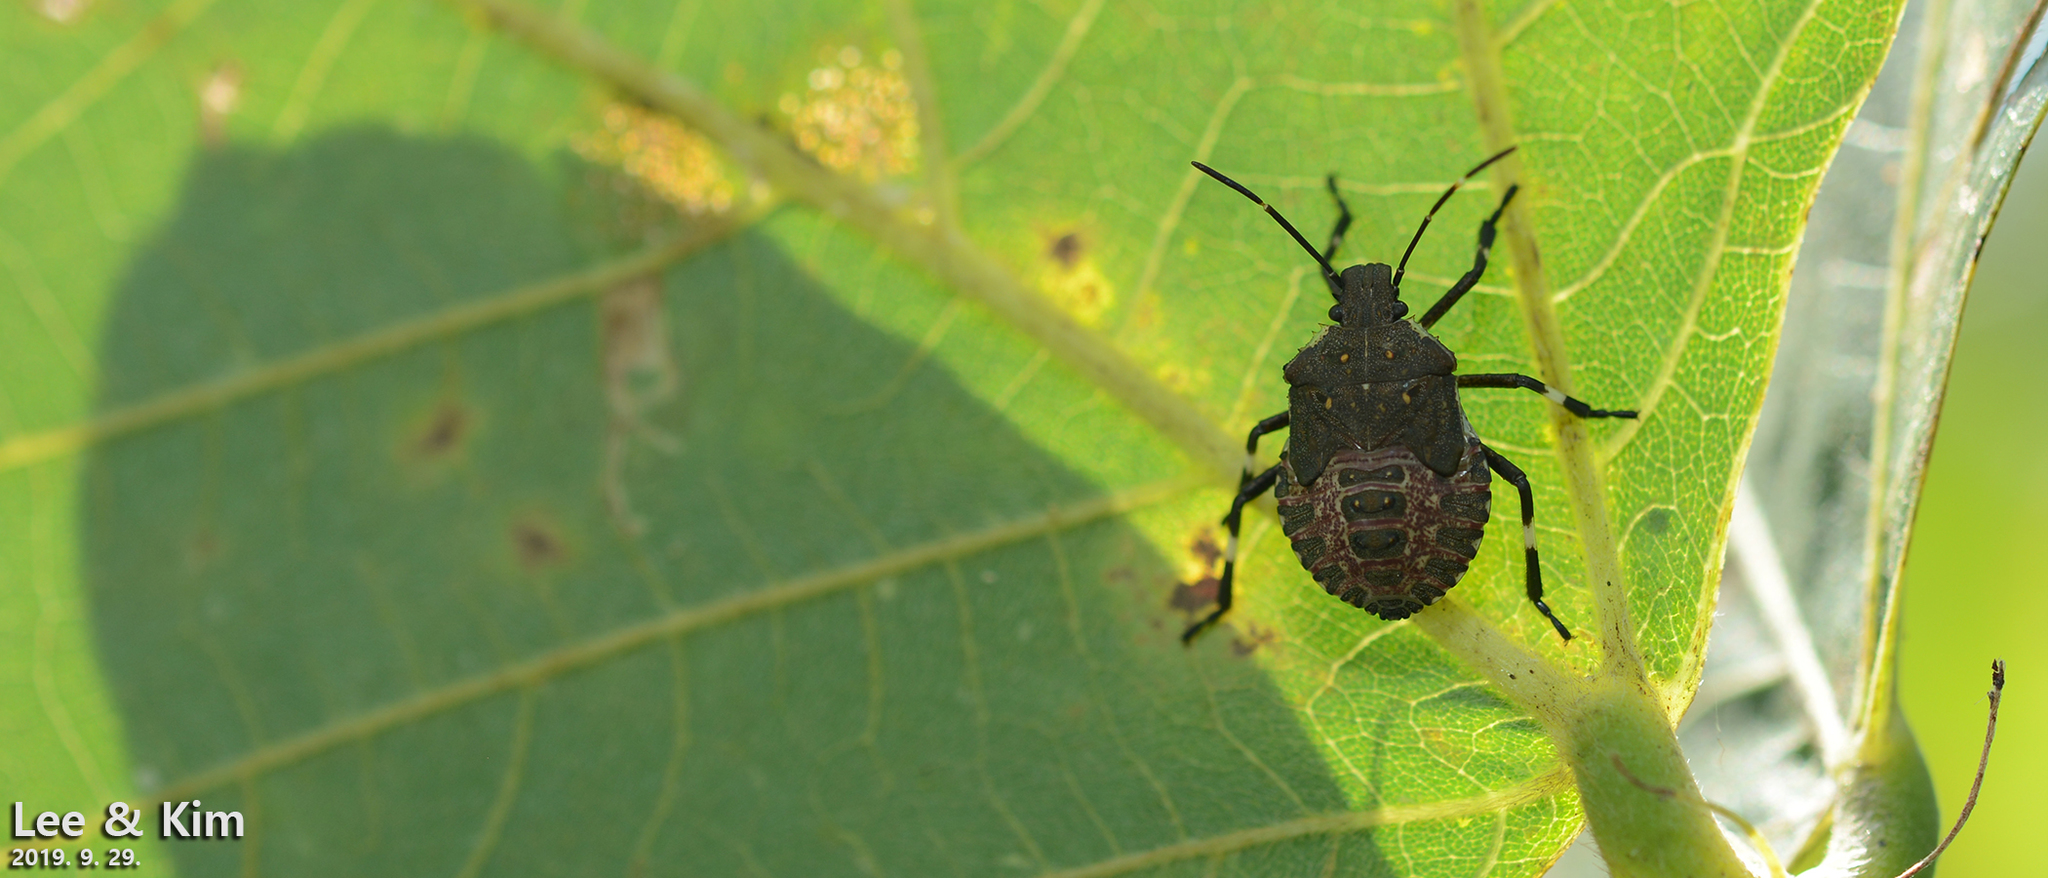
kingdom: Animalia
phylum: Arthropoda
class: Insecta
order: Hemiptera
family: Pentatomidae
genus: Halyomorpha
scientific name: Halyomorpha halys
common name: Brown marmorated stink bug
